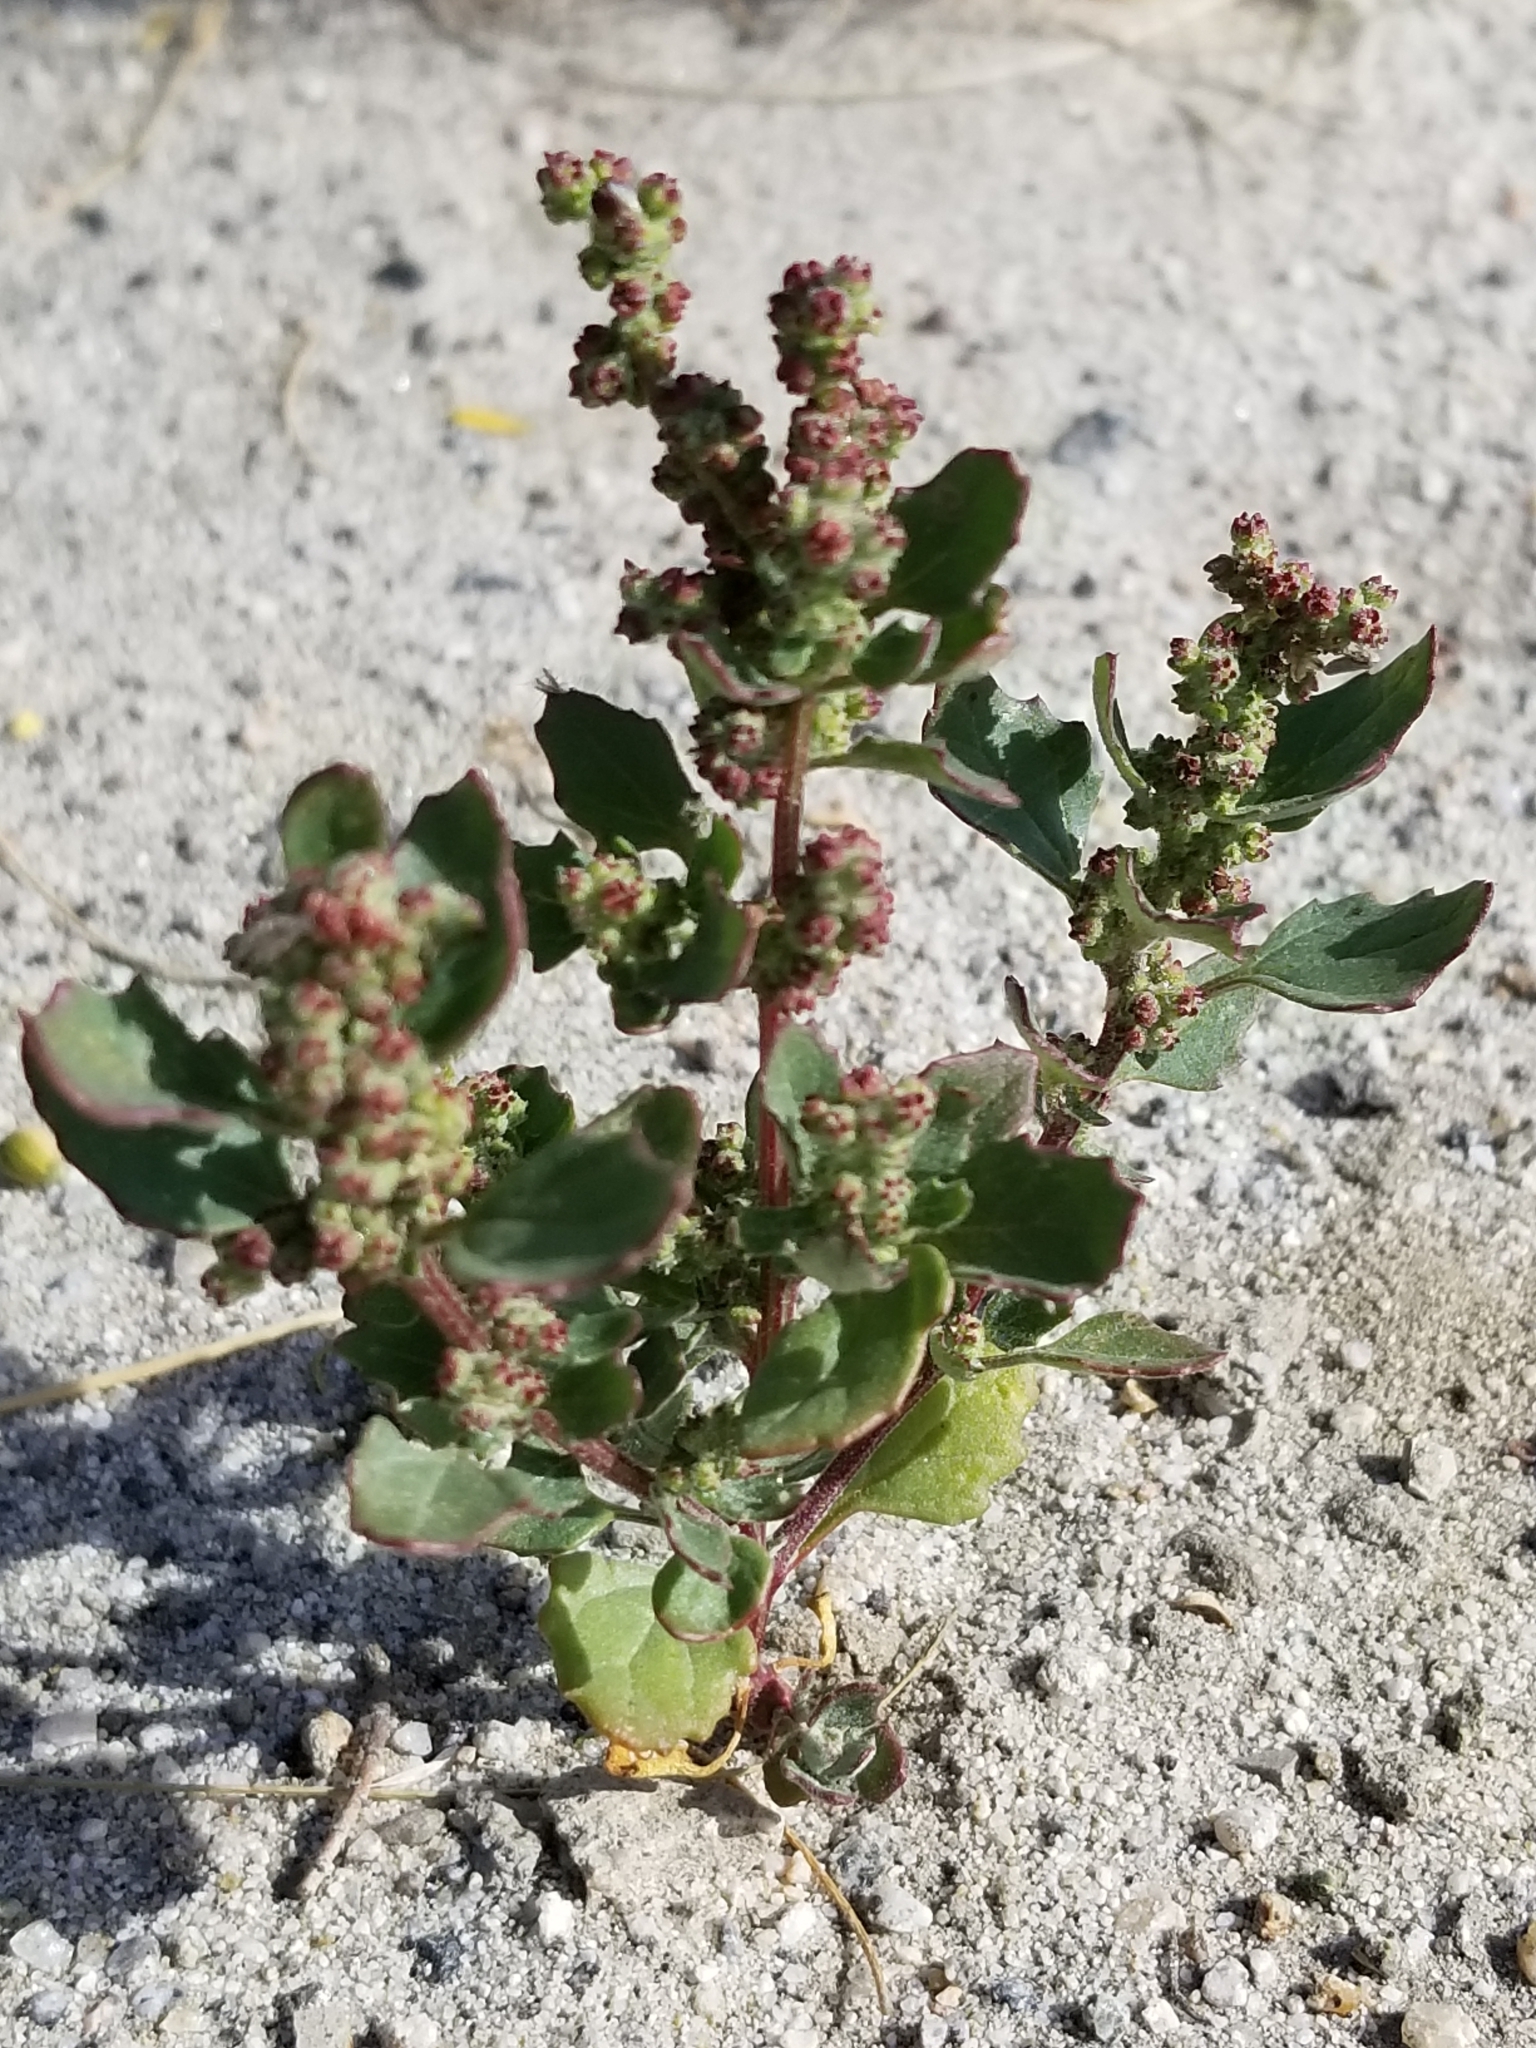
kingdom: Plantae
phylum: Tracheophyta
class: Magnoliopsida
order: Caryophyllales
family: Amaranthaceae
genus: Chenopodiastrum
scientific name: Chenopodiastrum murale
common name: Sowbane
